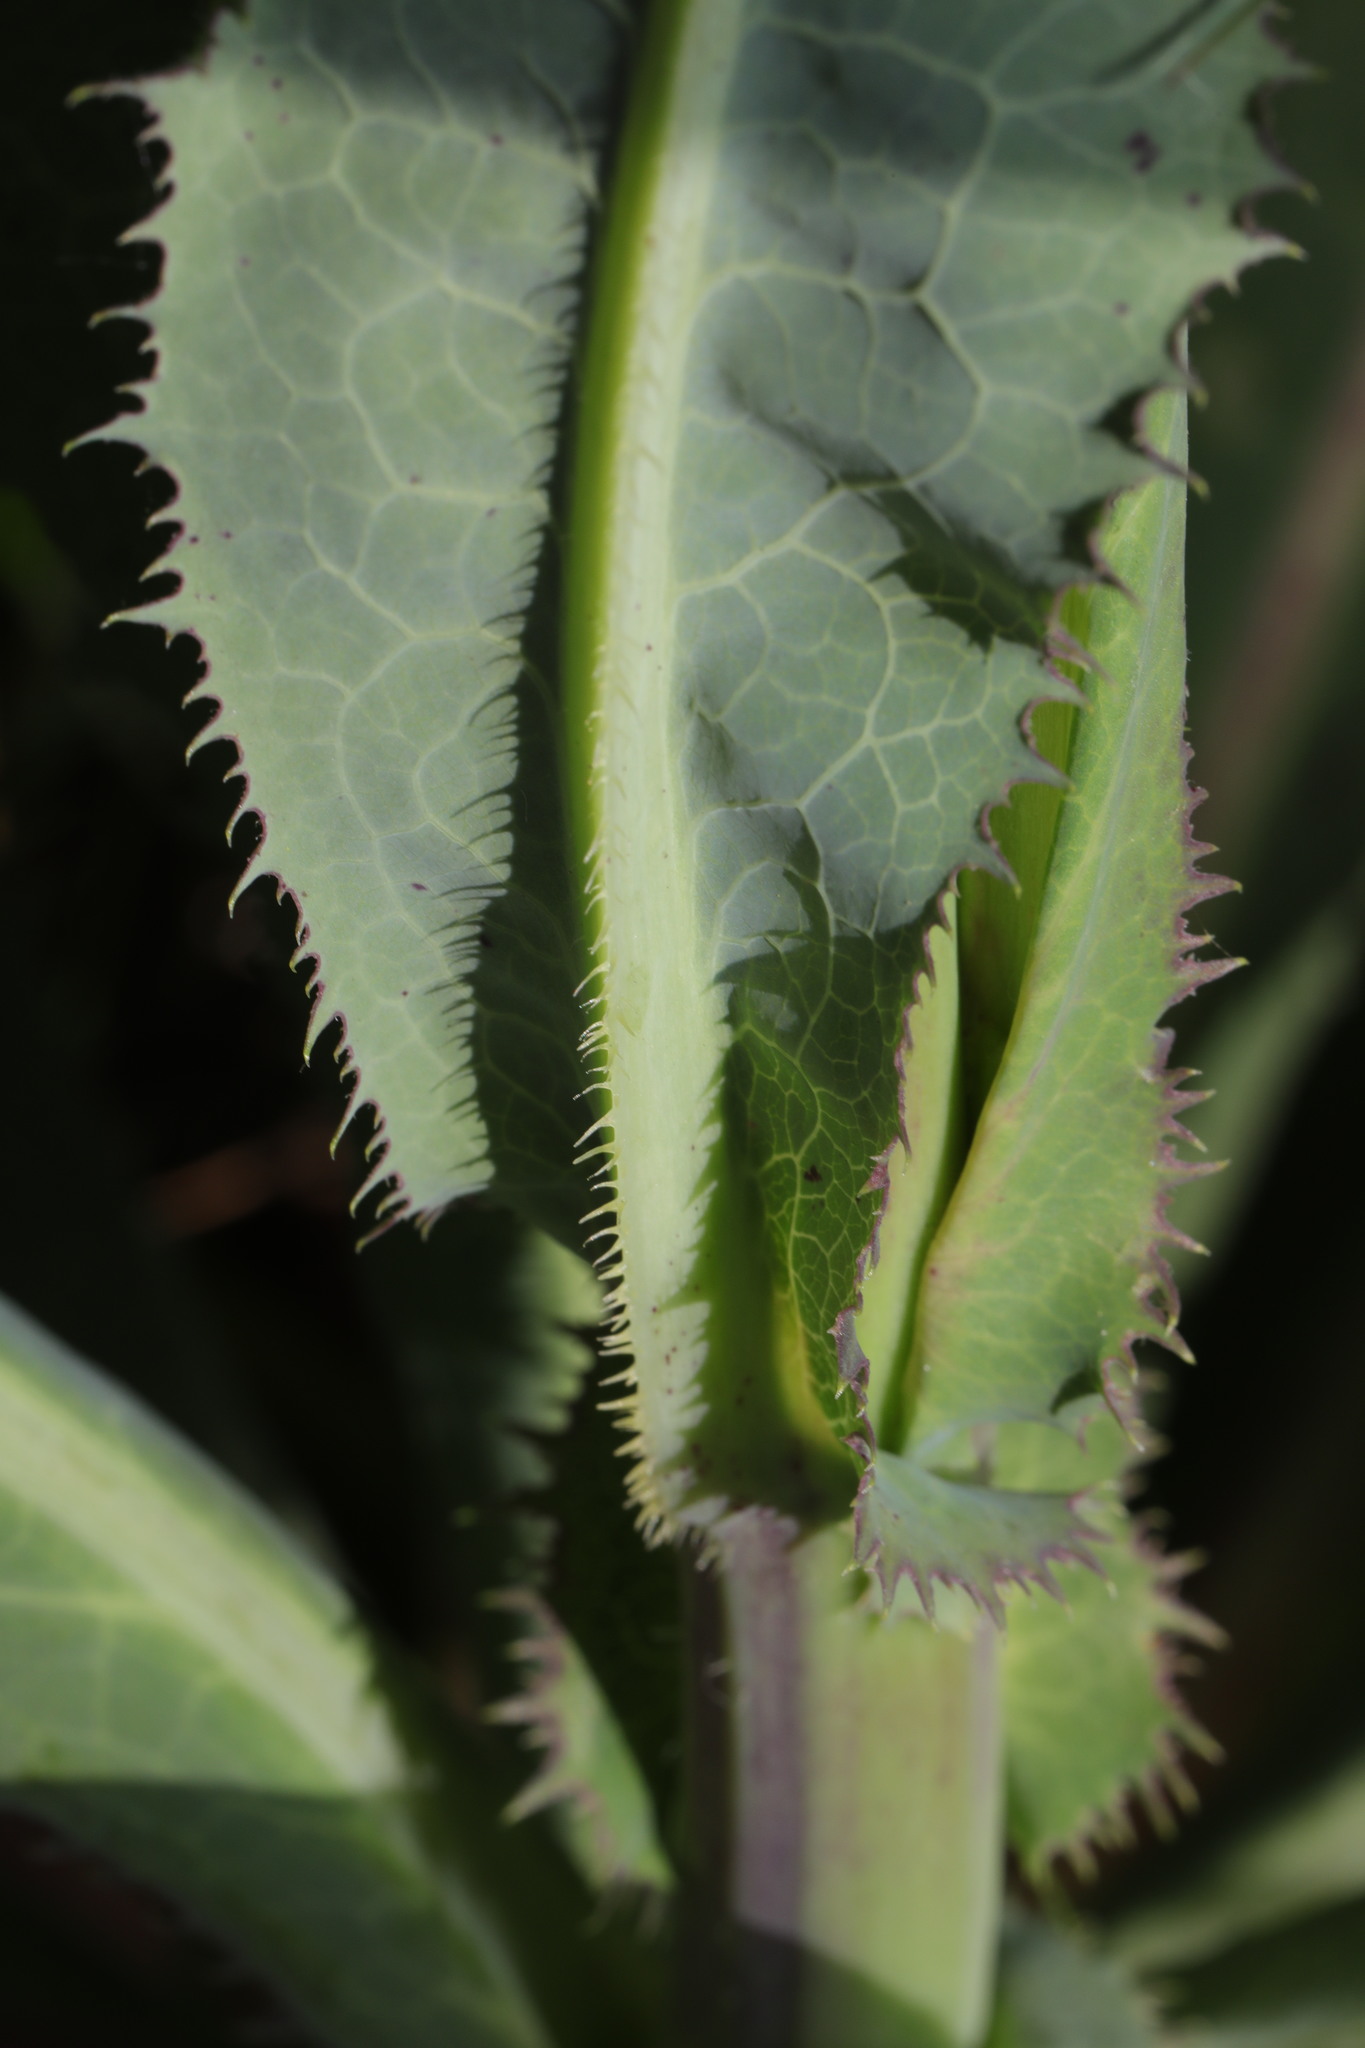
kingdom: Plantae
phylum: Tracheophyta
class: Magnoliopsida
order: Asterales
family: Asteraceae
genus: Lactuca
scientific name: Lactuca serriola
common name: Prickly lettuce
